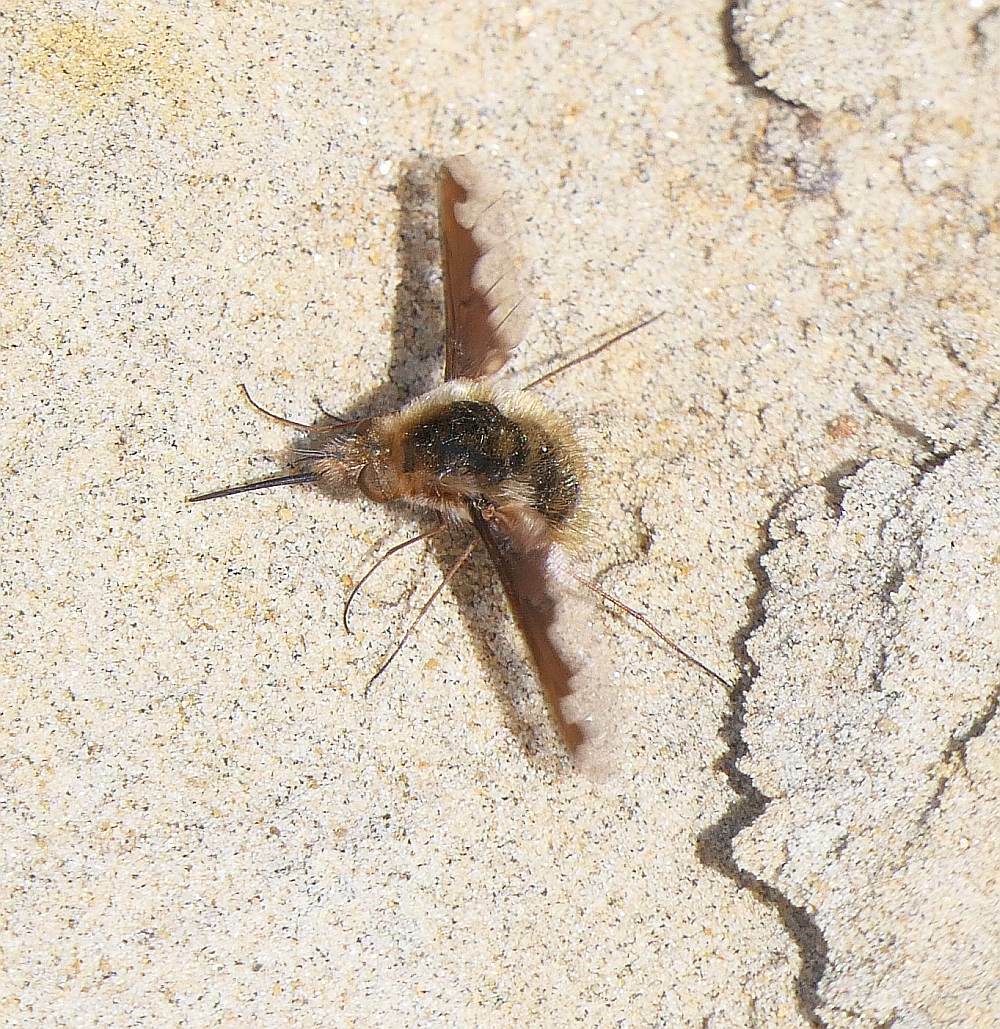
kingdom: Animalia
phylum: Arthropoda
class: Insecta
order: Diptera
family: Bombyliidae
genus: Bombylius
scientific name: Bombylius major
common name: Bee fly
